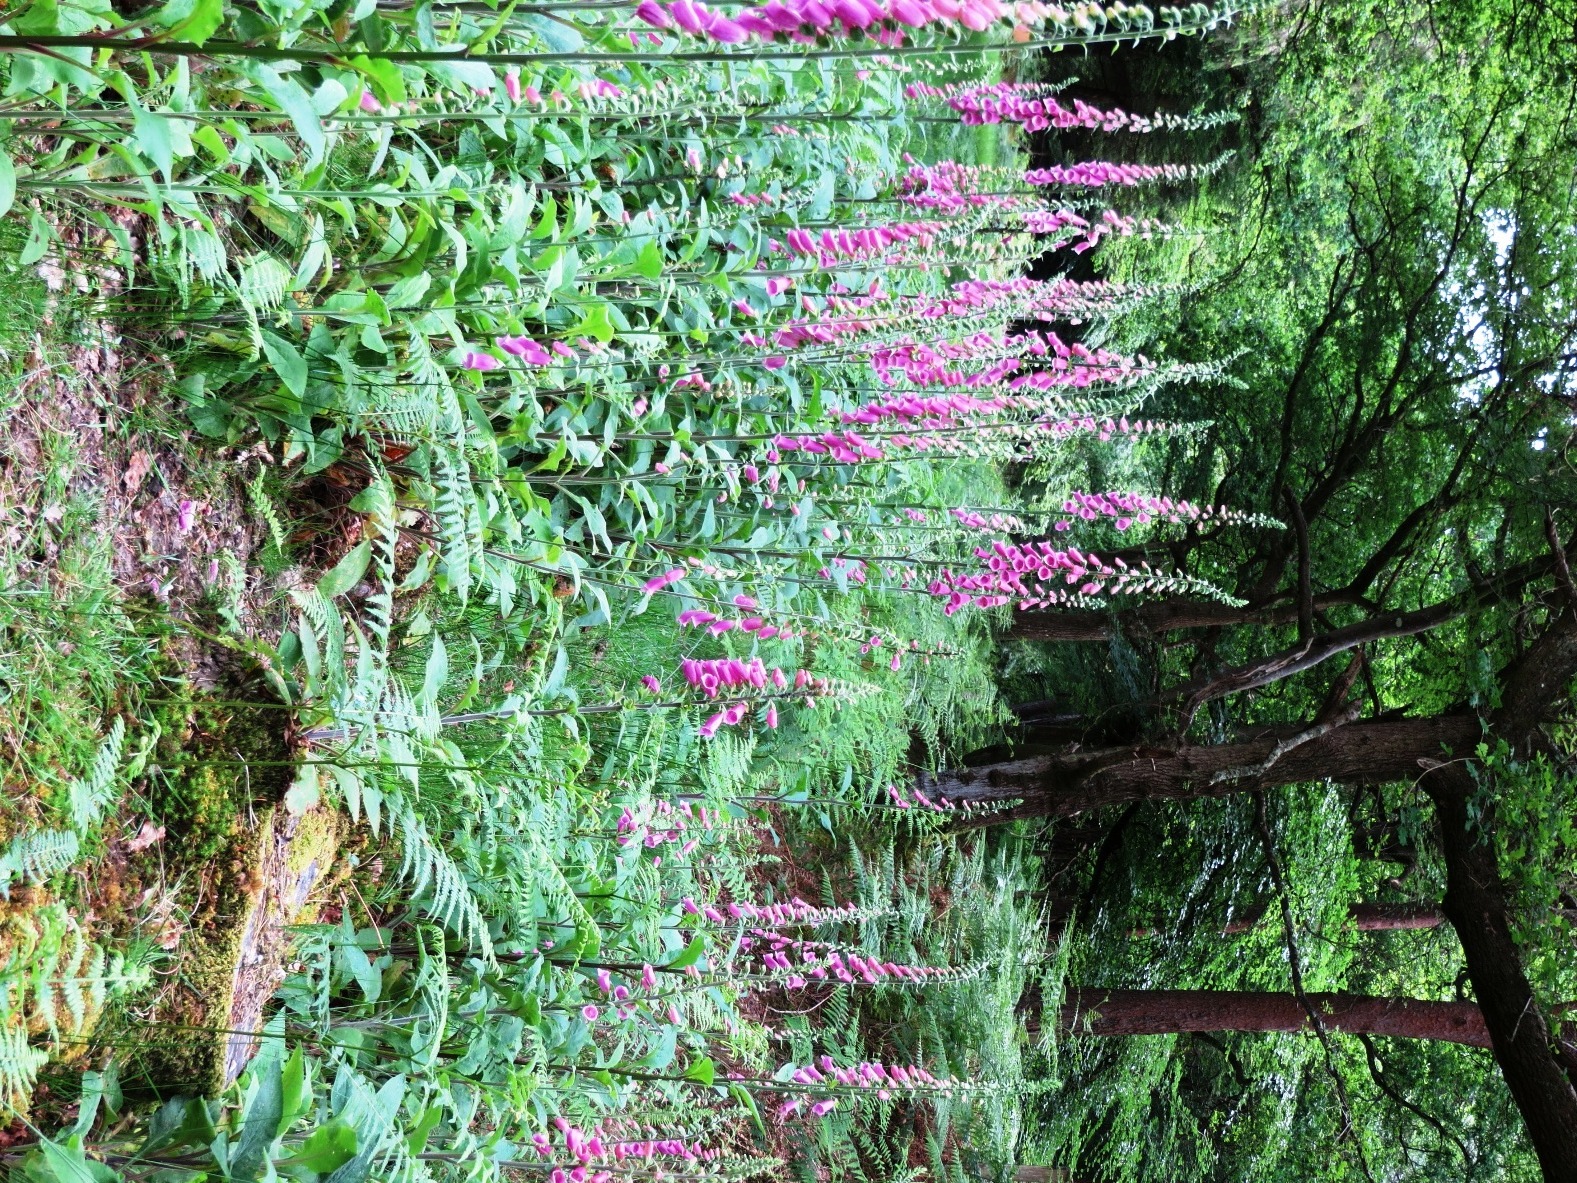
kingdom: Plantae
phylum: Tracheophyta
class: Magnoliopsida
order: Lamiales
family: Plantaginaceae
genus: Digitalis
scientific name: Digitalis purpurea
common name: Foxglove
